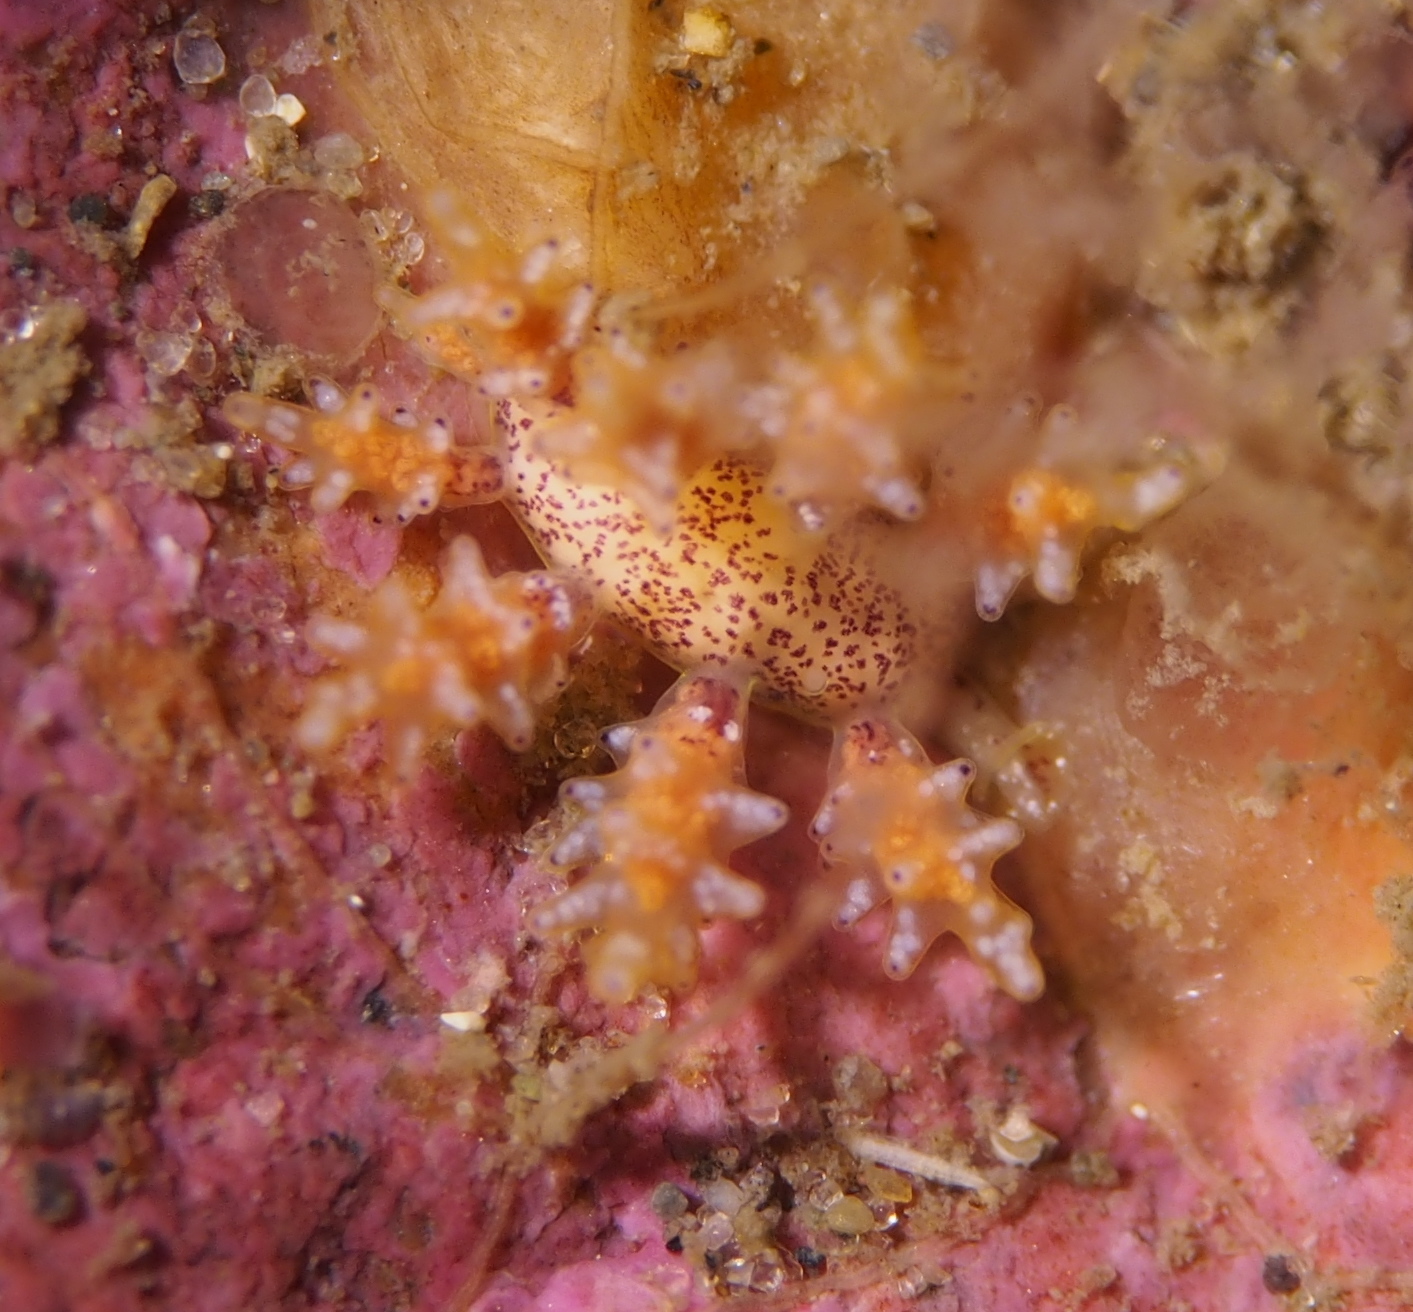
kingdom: Animalia
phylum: Mollusca
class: Gastropoda
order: Nudibranchia
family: Dotidae
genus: Doto
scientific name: Doto maculata
